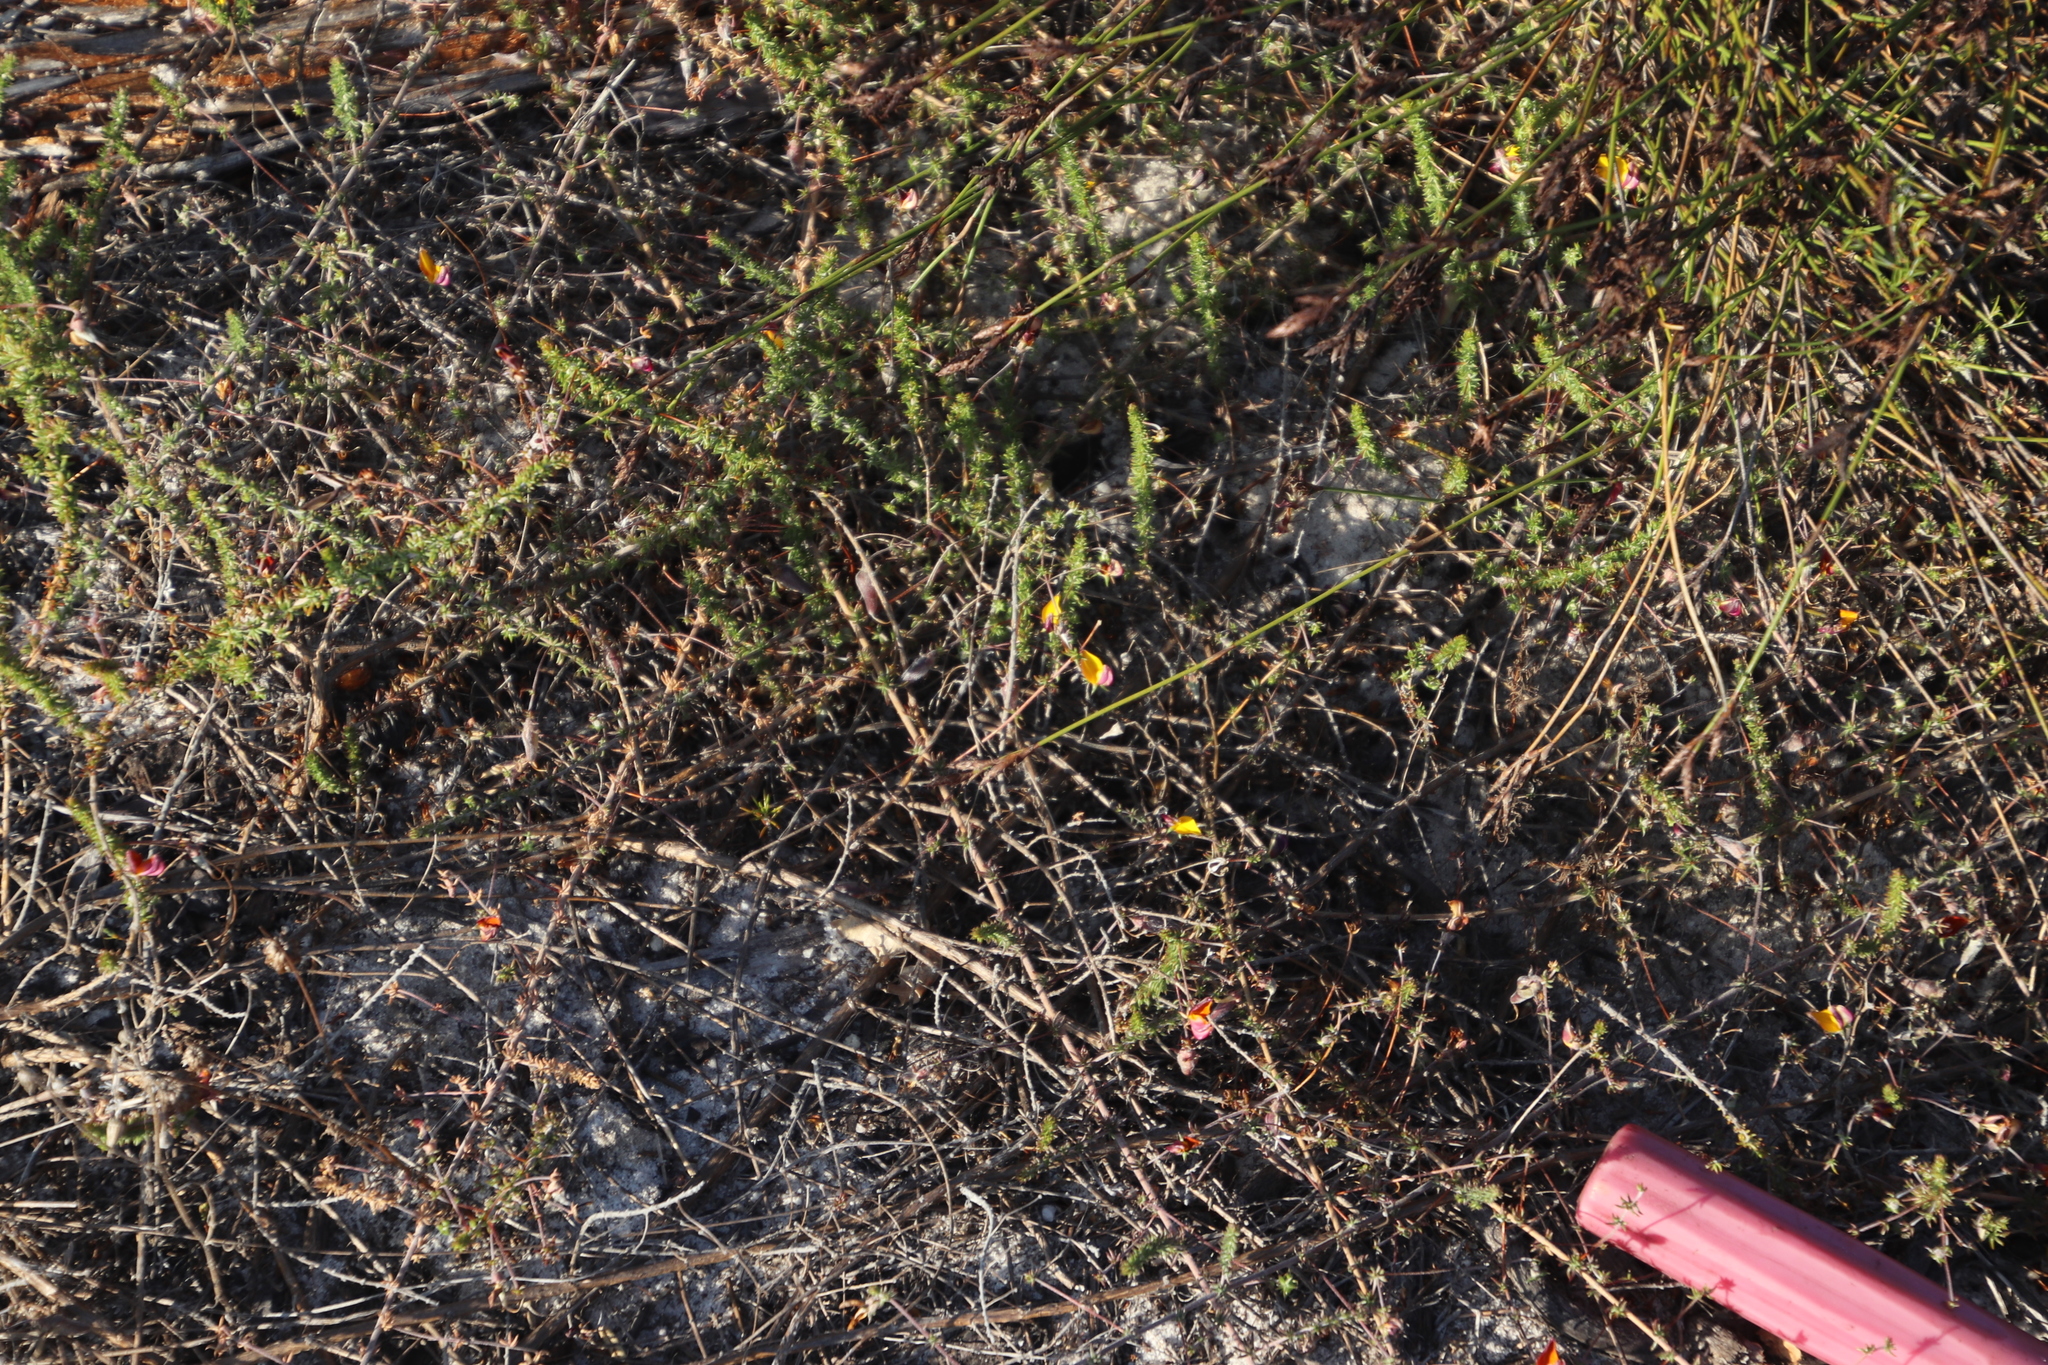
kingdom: Plantae
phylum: Tracheophyta
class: Magnoliopsida
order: Fabales
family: Fabaceae
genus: Aspalathus
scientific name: Aspalathus retroflexa
